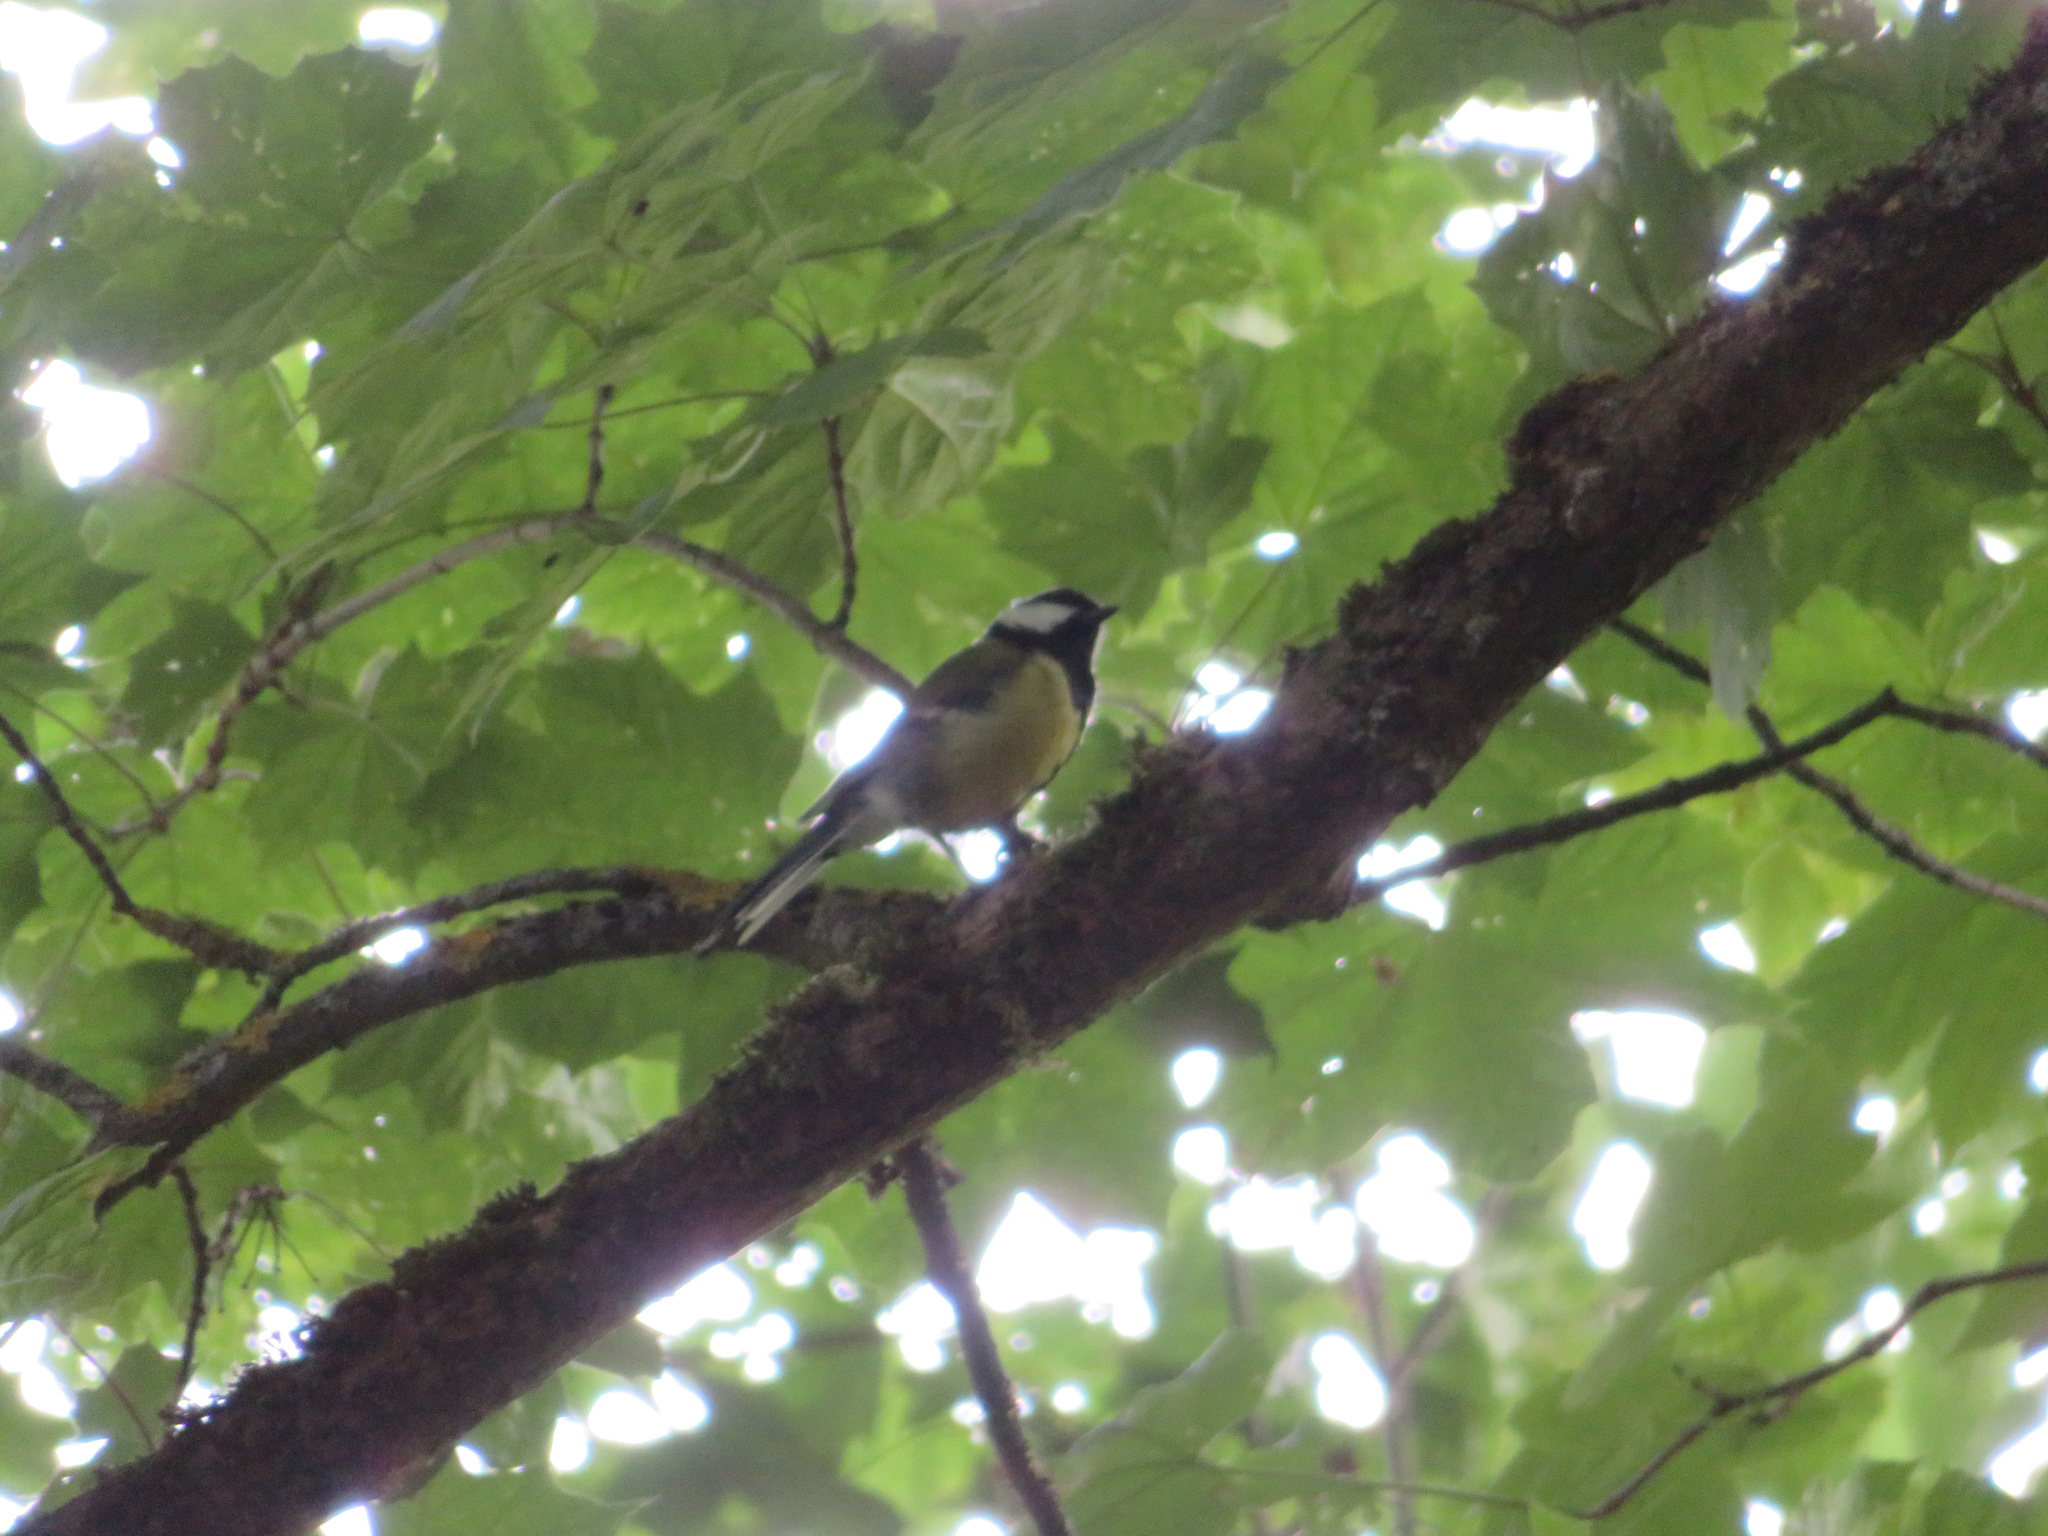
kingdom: Animalia
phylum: Chordata
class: Aves
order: Passeriformes
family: Paridae
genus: Parus
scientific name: Parus major
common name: Great tit
